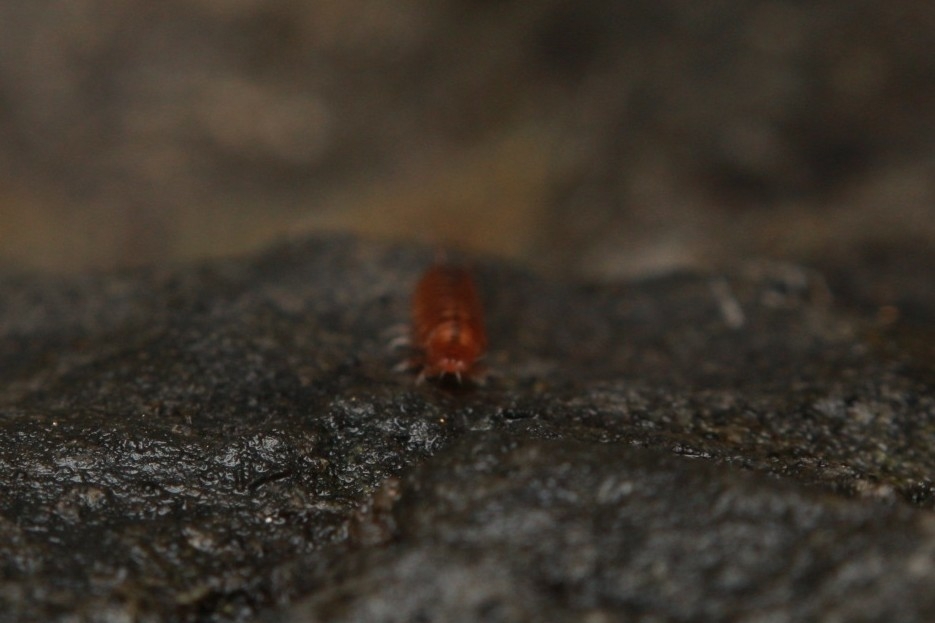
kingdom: Animalia
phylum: Arthropoda
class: Malacostraca
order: Isopoda
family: Trichoniscidae
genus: Trichoniscus
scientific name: Trichoniscus pusillus
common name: Common pygmy woodlouse
